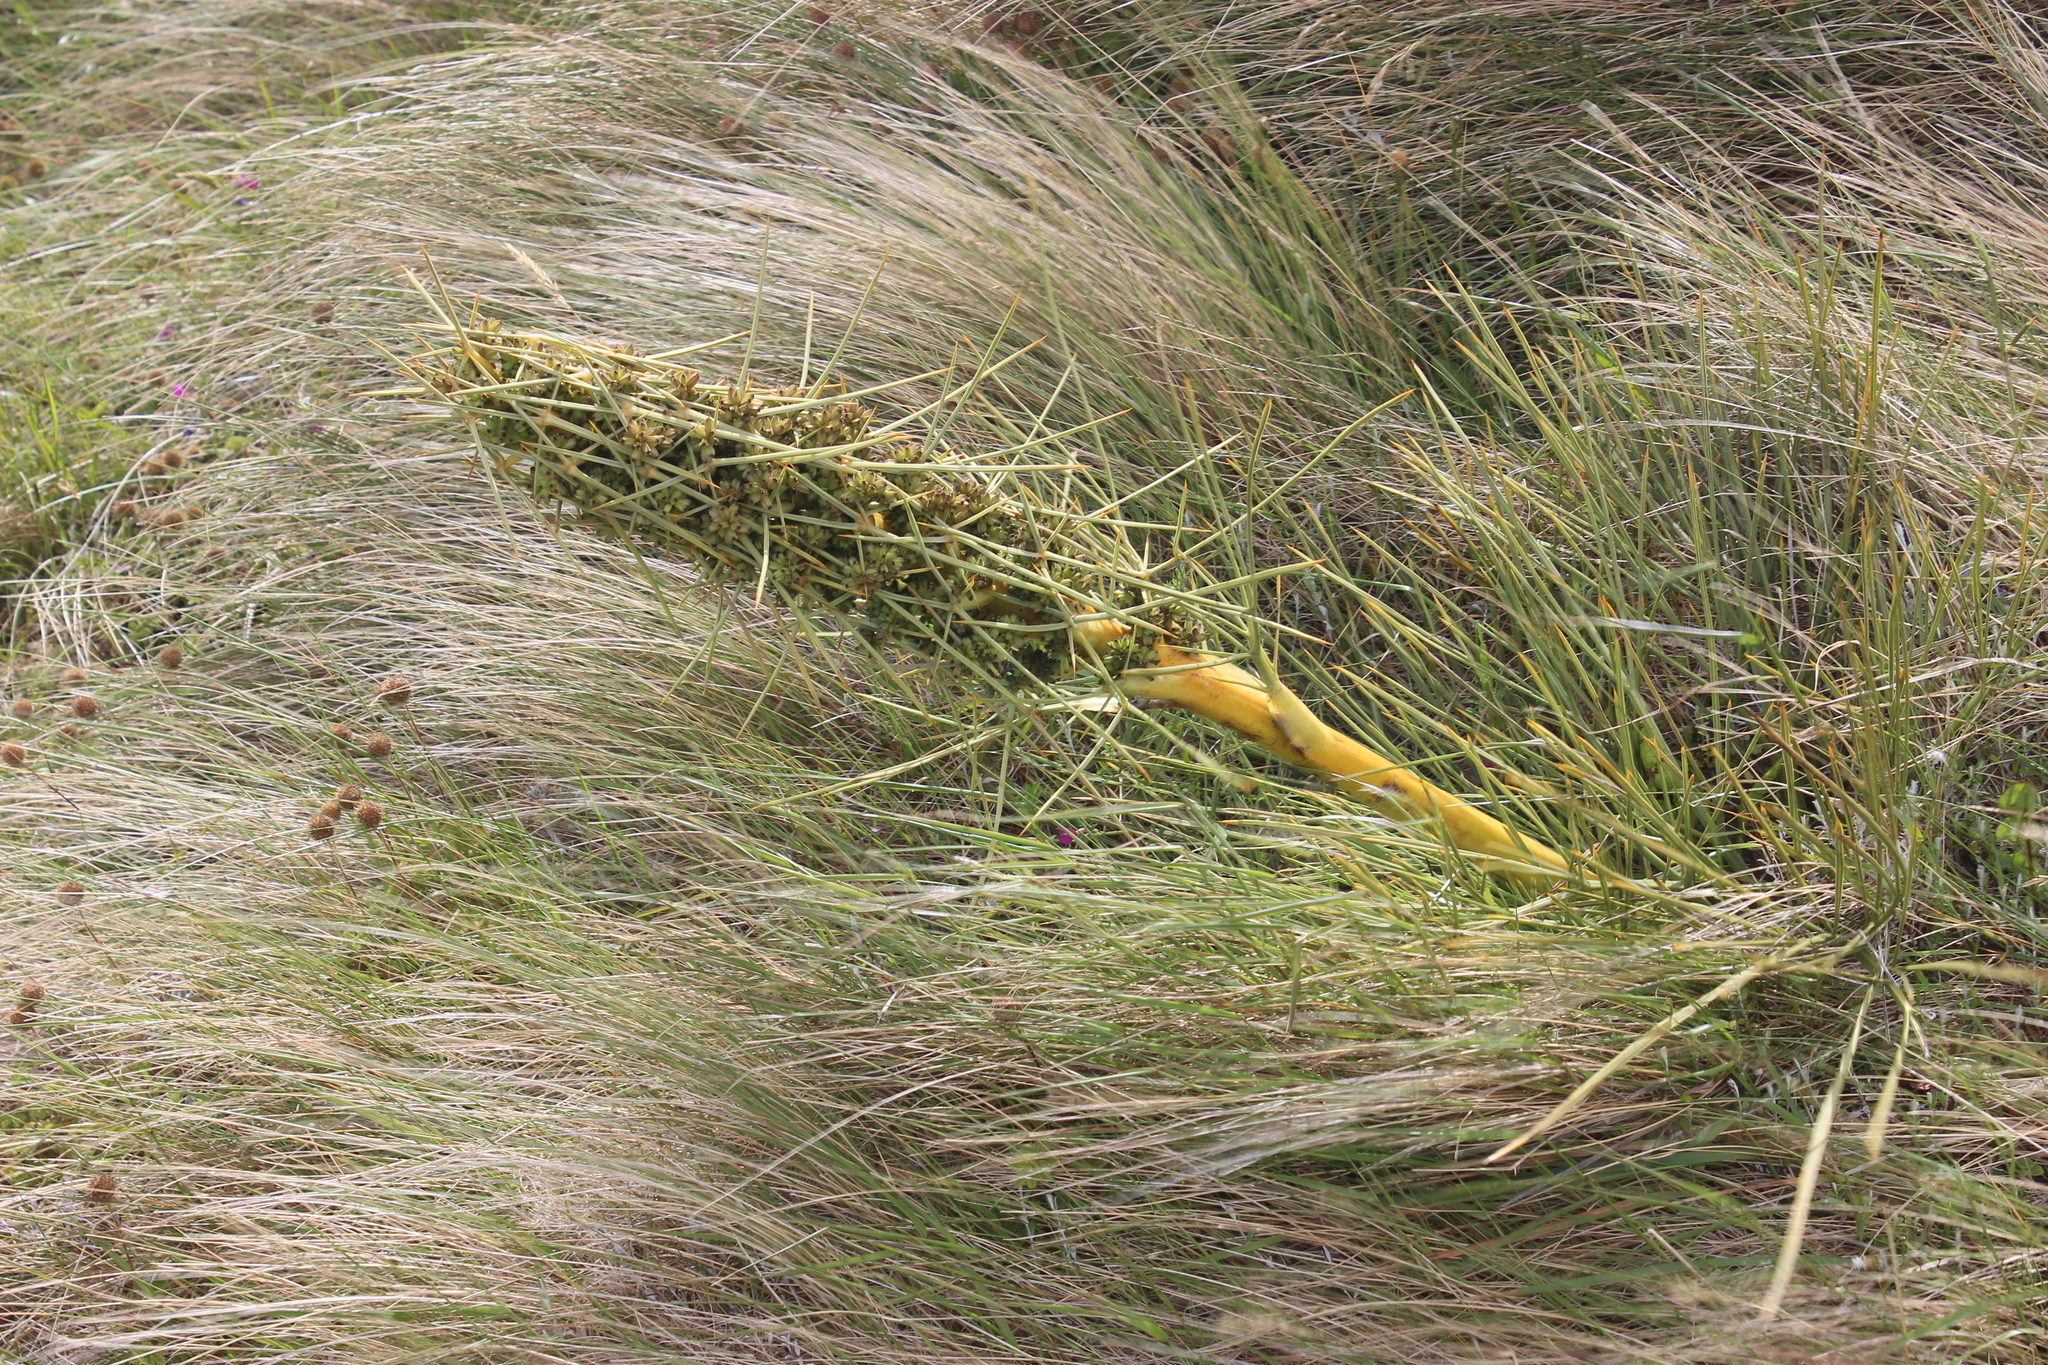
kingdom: Plantae
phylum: Tracheophyta
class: Magnoliopsida
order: Apiales
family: Apiaceae
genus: Aciphylla
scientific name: Aciphylla squarrosa
